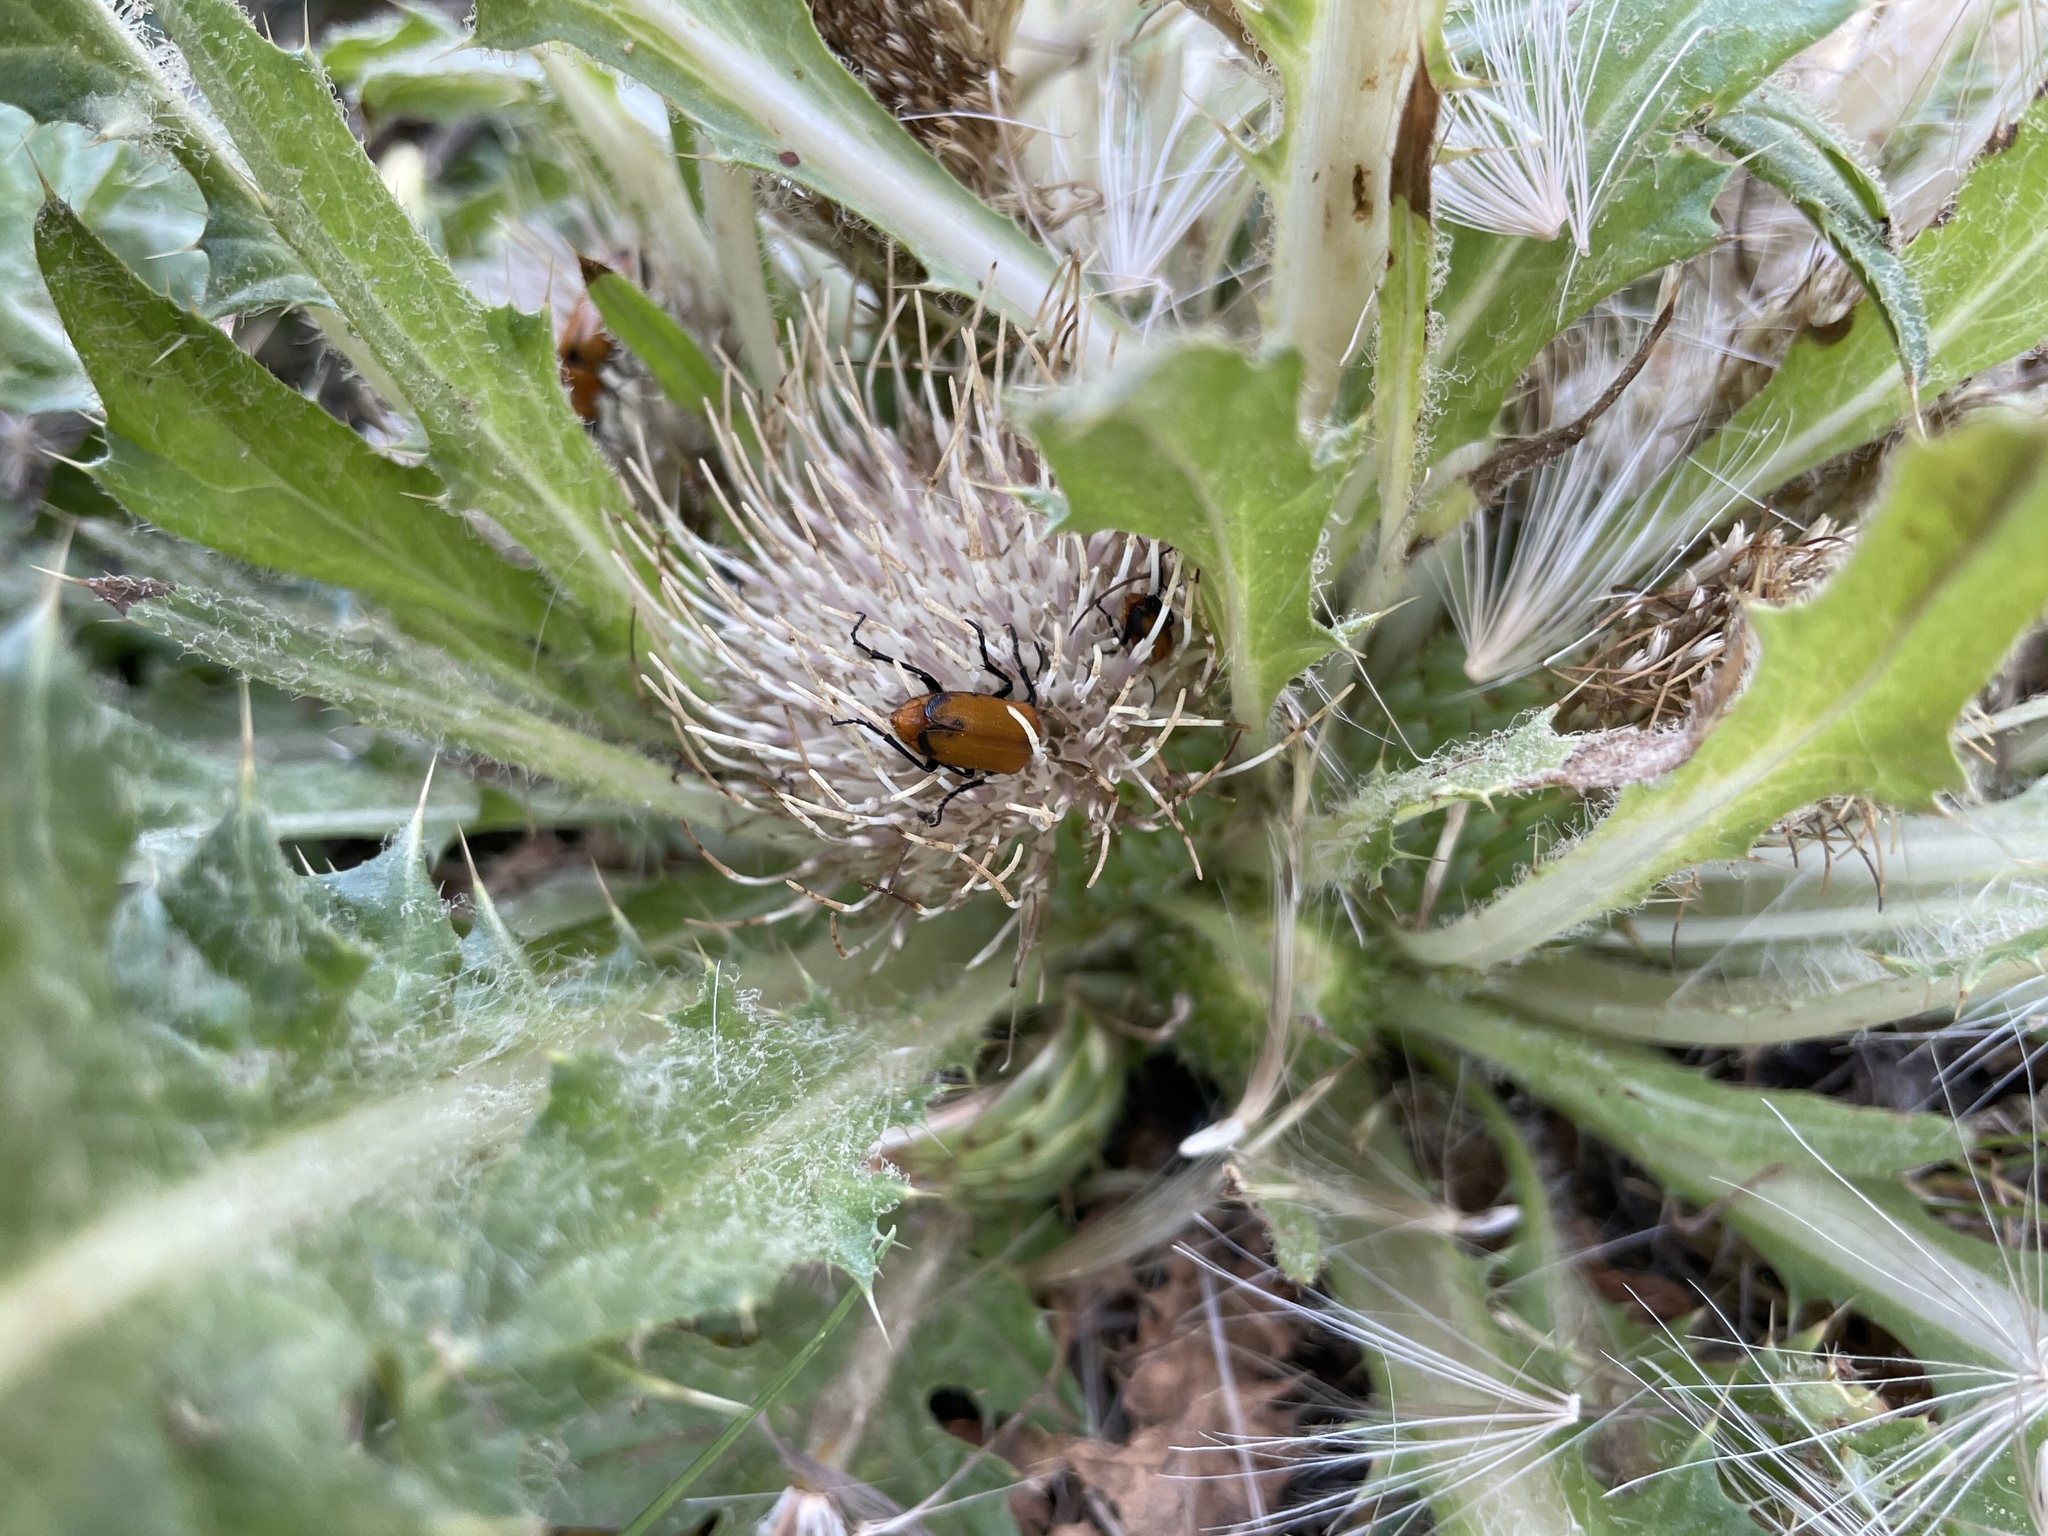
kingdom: Plantae
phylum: Tracheophyta
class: Magnoliopsida
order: Asterales
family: Asteraceae
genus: Cirsium
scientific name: Cirsium scariosum
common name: Meadow thistle
